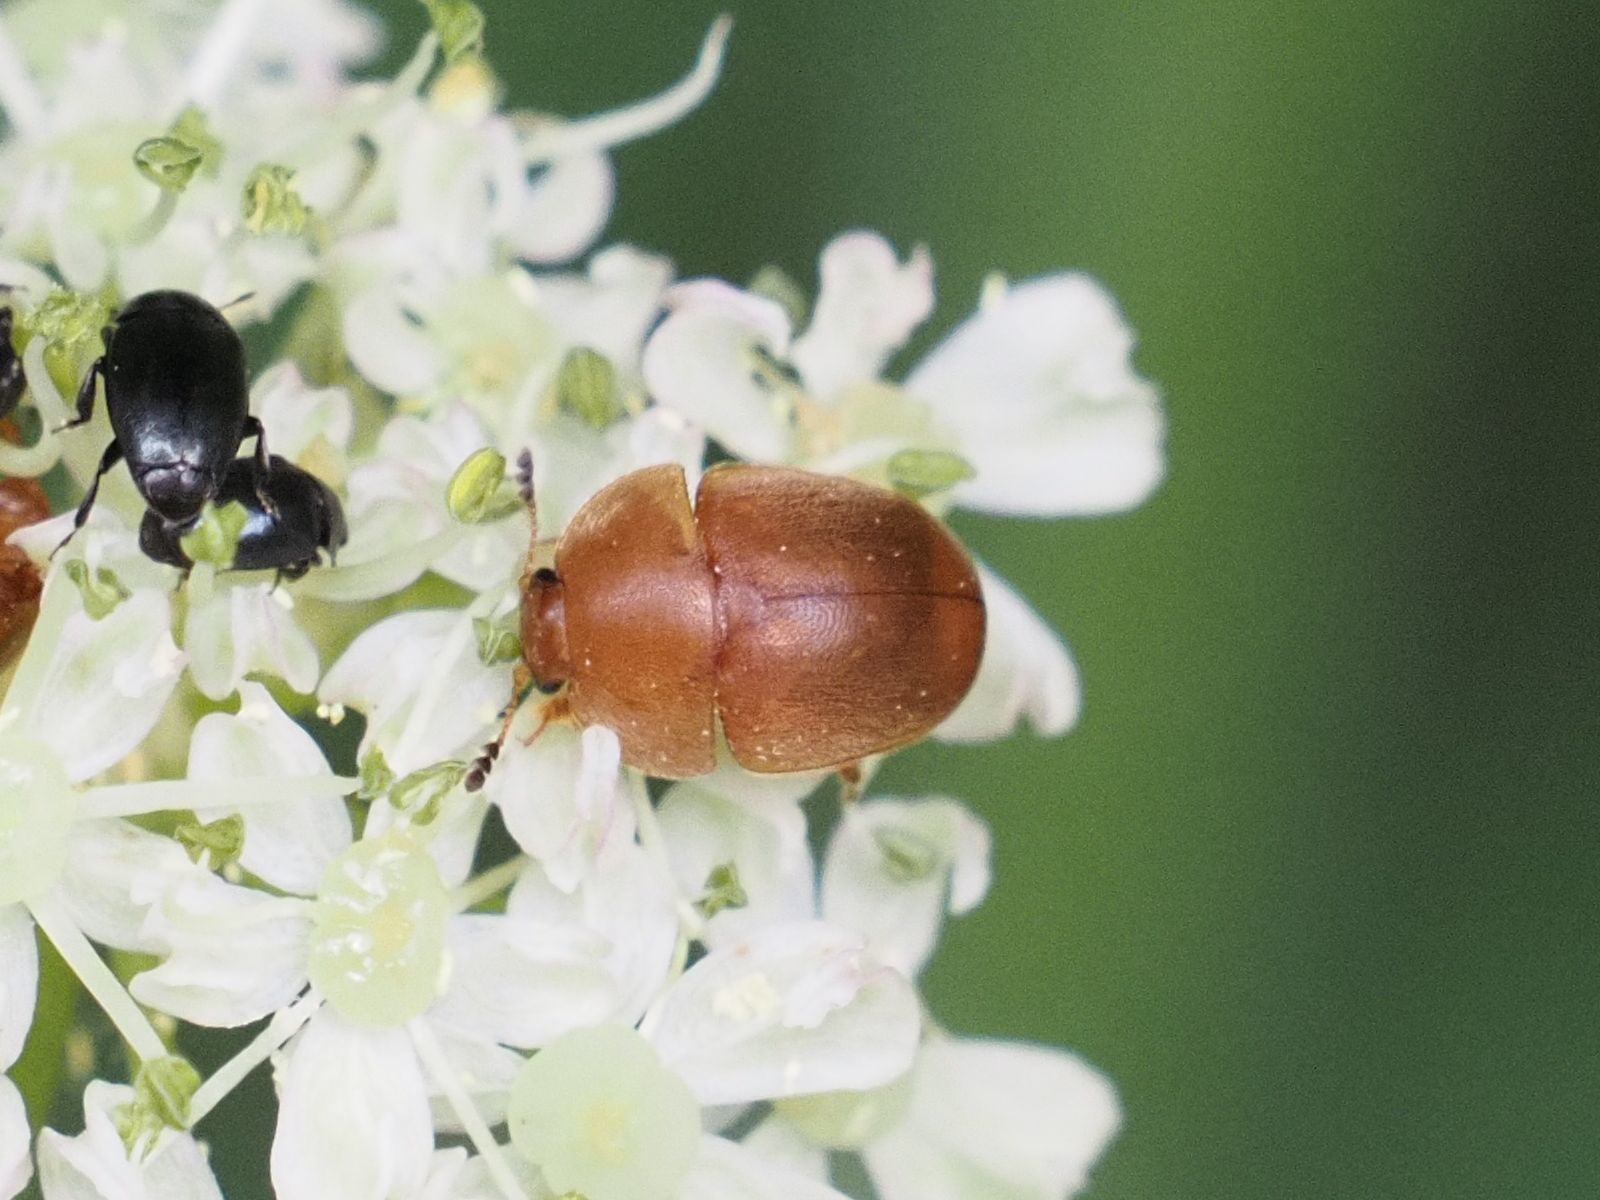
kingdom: Animalia
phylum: Arthropoda
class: Insecta
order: Coleoptera
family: Nitidulidae
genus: Cychramus
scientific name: Cychramus luteus
